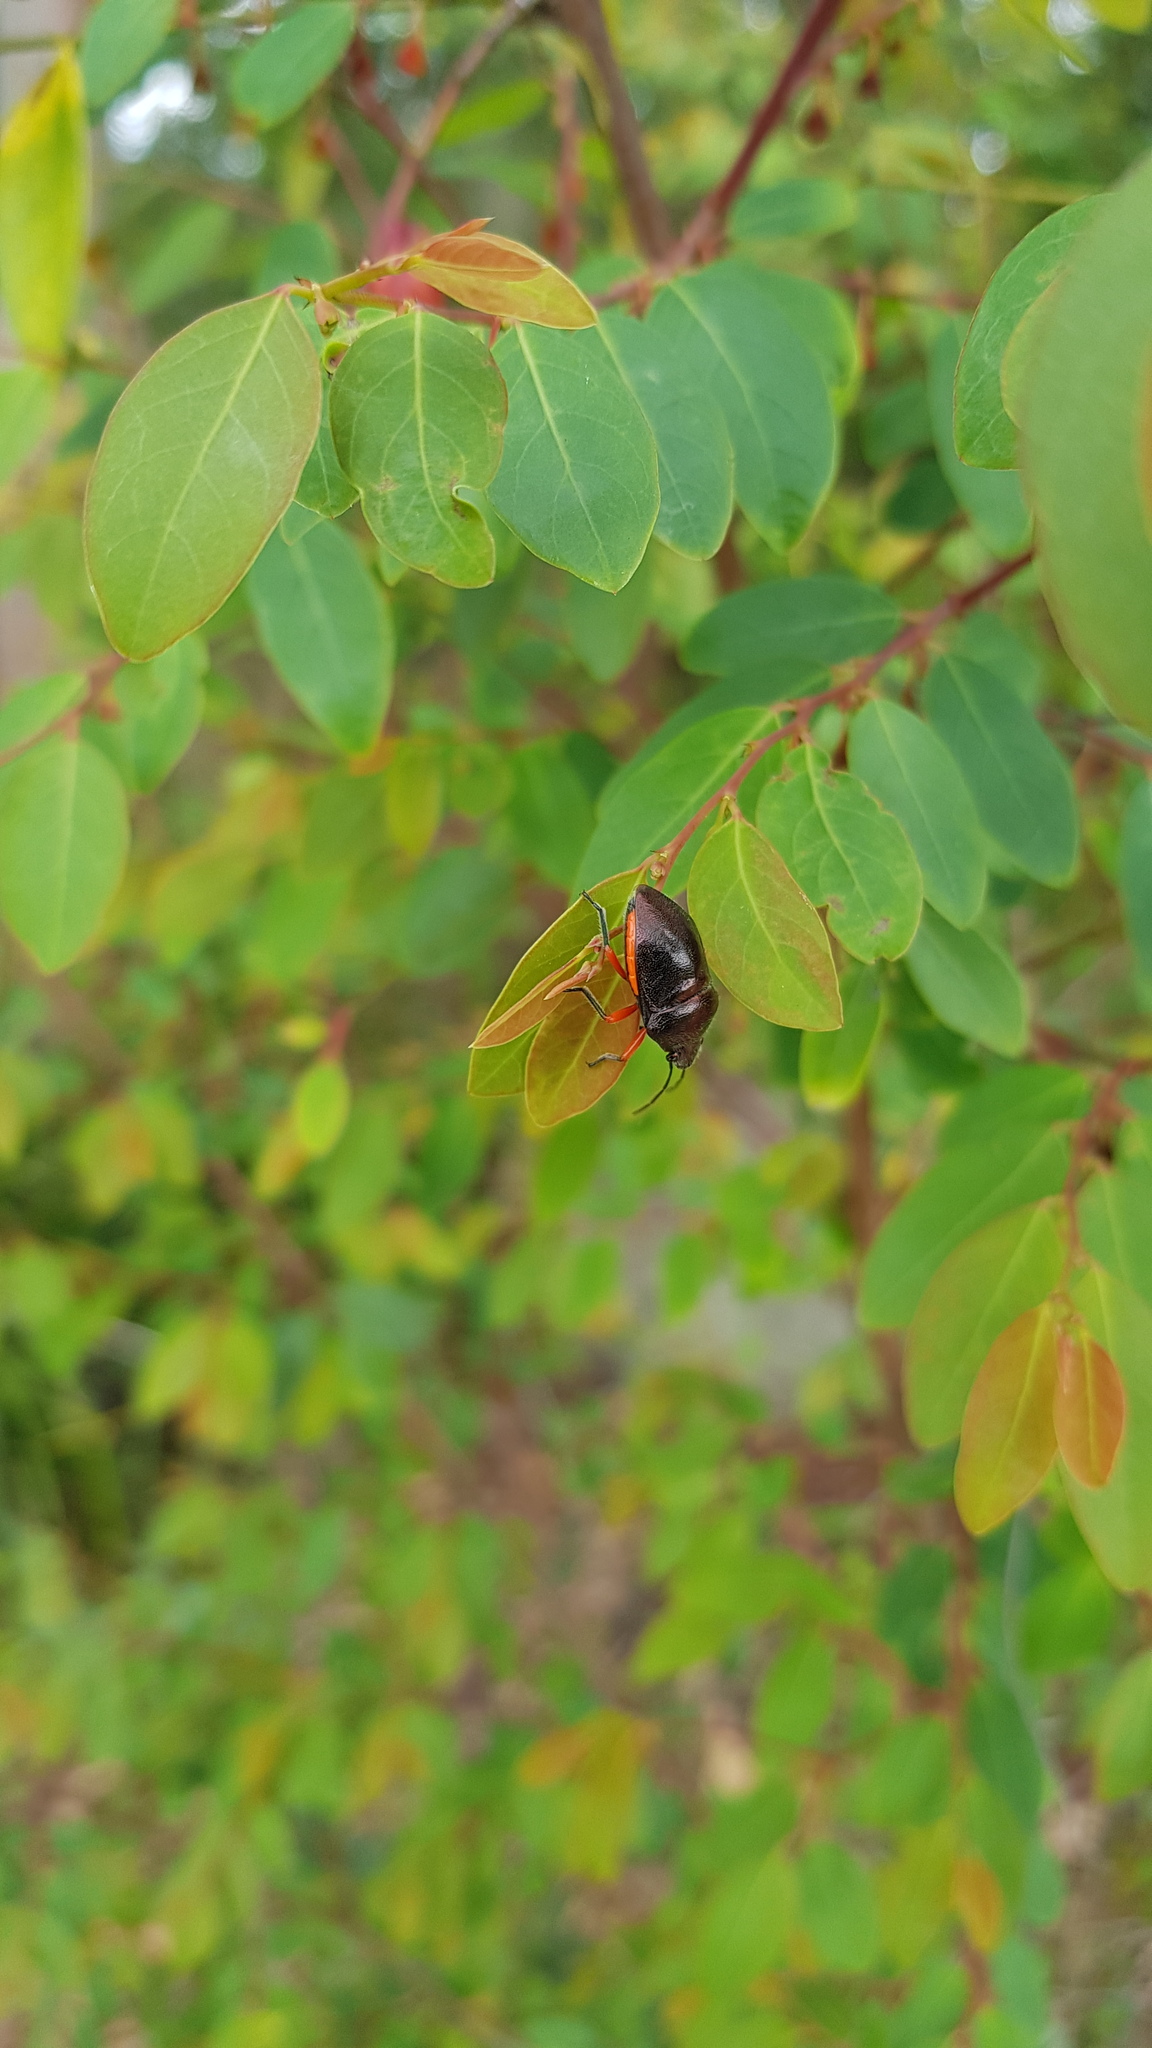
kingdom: Animalia
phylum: Arthropoda
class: Insecta
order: Hemiptera
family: Scutelleridae
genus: Lampromicra
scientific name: Lampromicra
